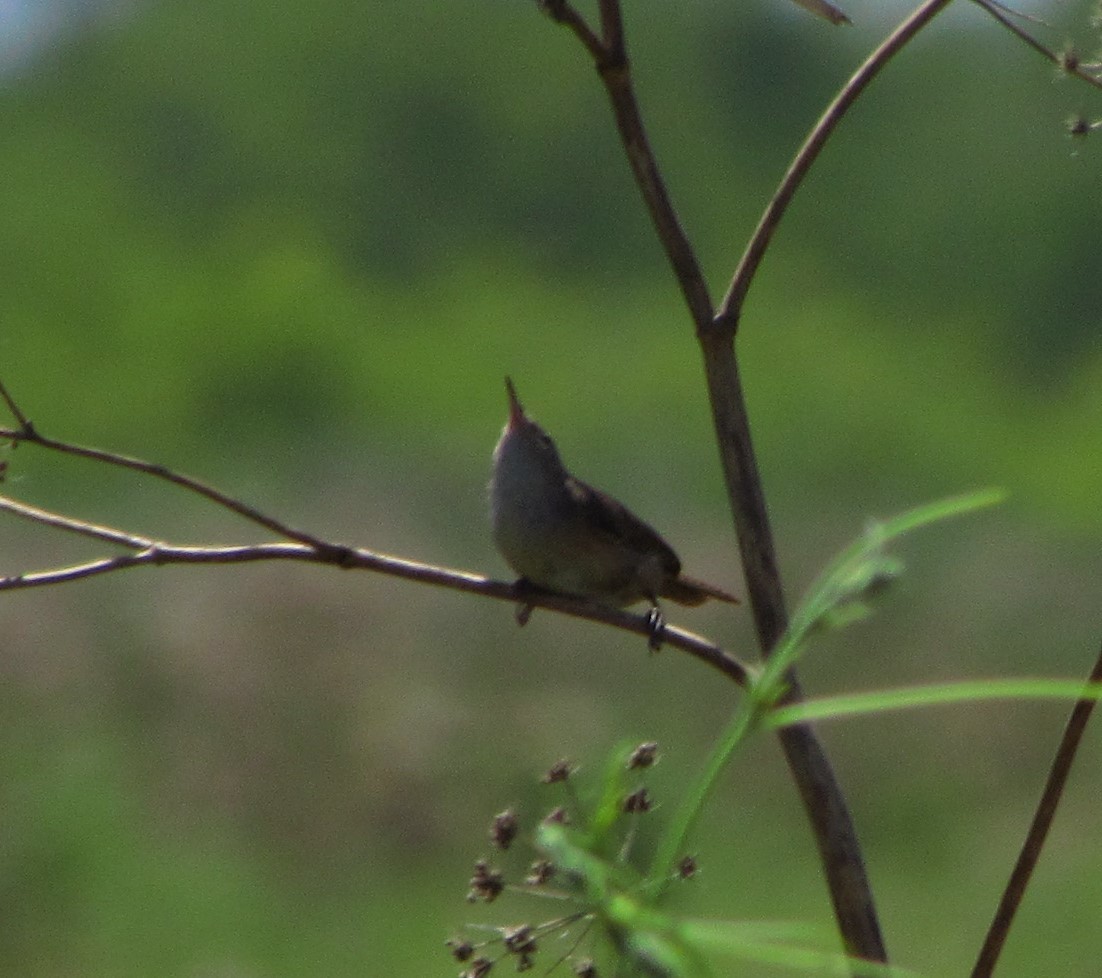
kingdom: Animalia
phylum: Chordata
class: Aves
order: Passeriformes
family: Troglodytidae
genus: Troglodytes
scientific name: Troglodytes aedon
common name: House wren
